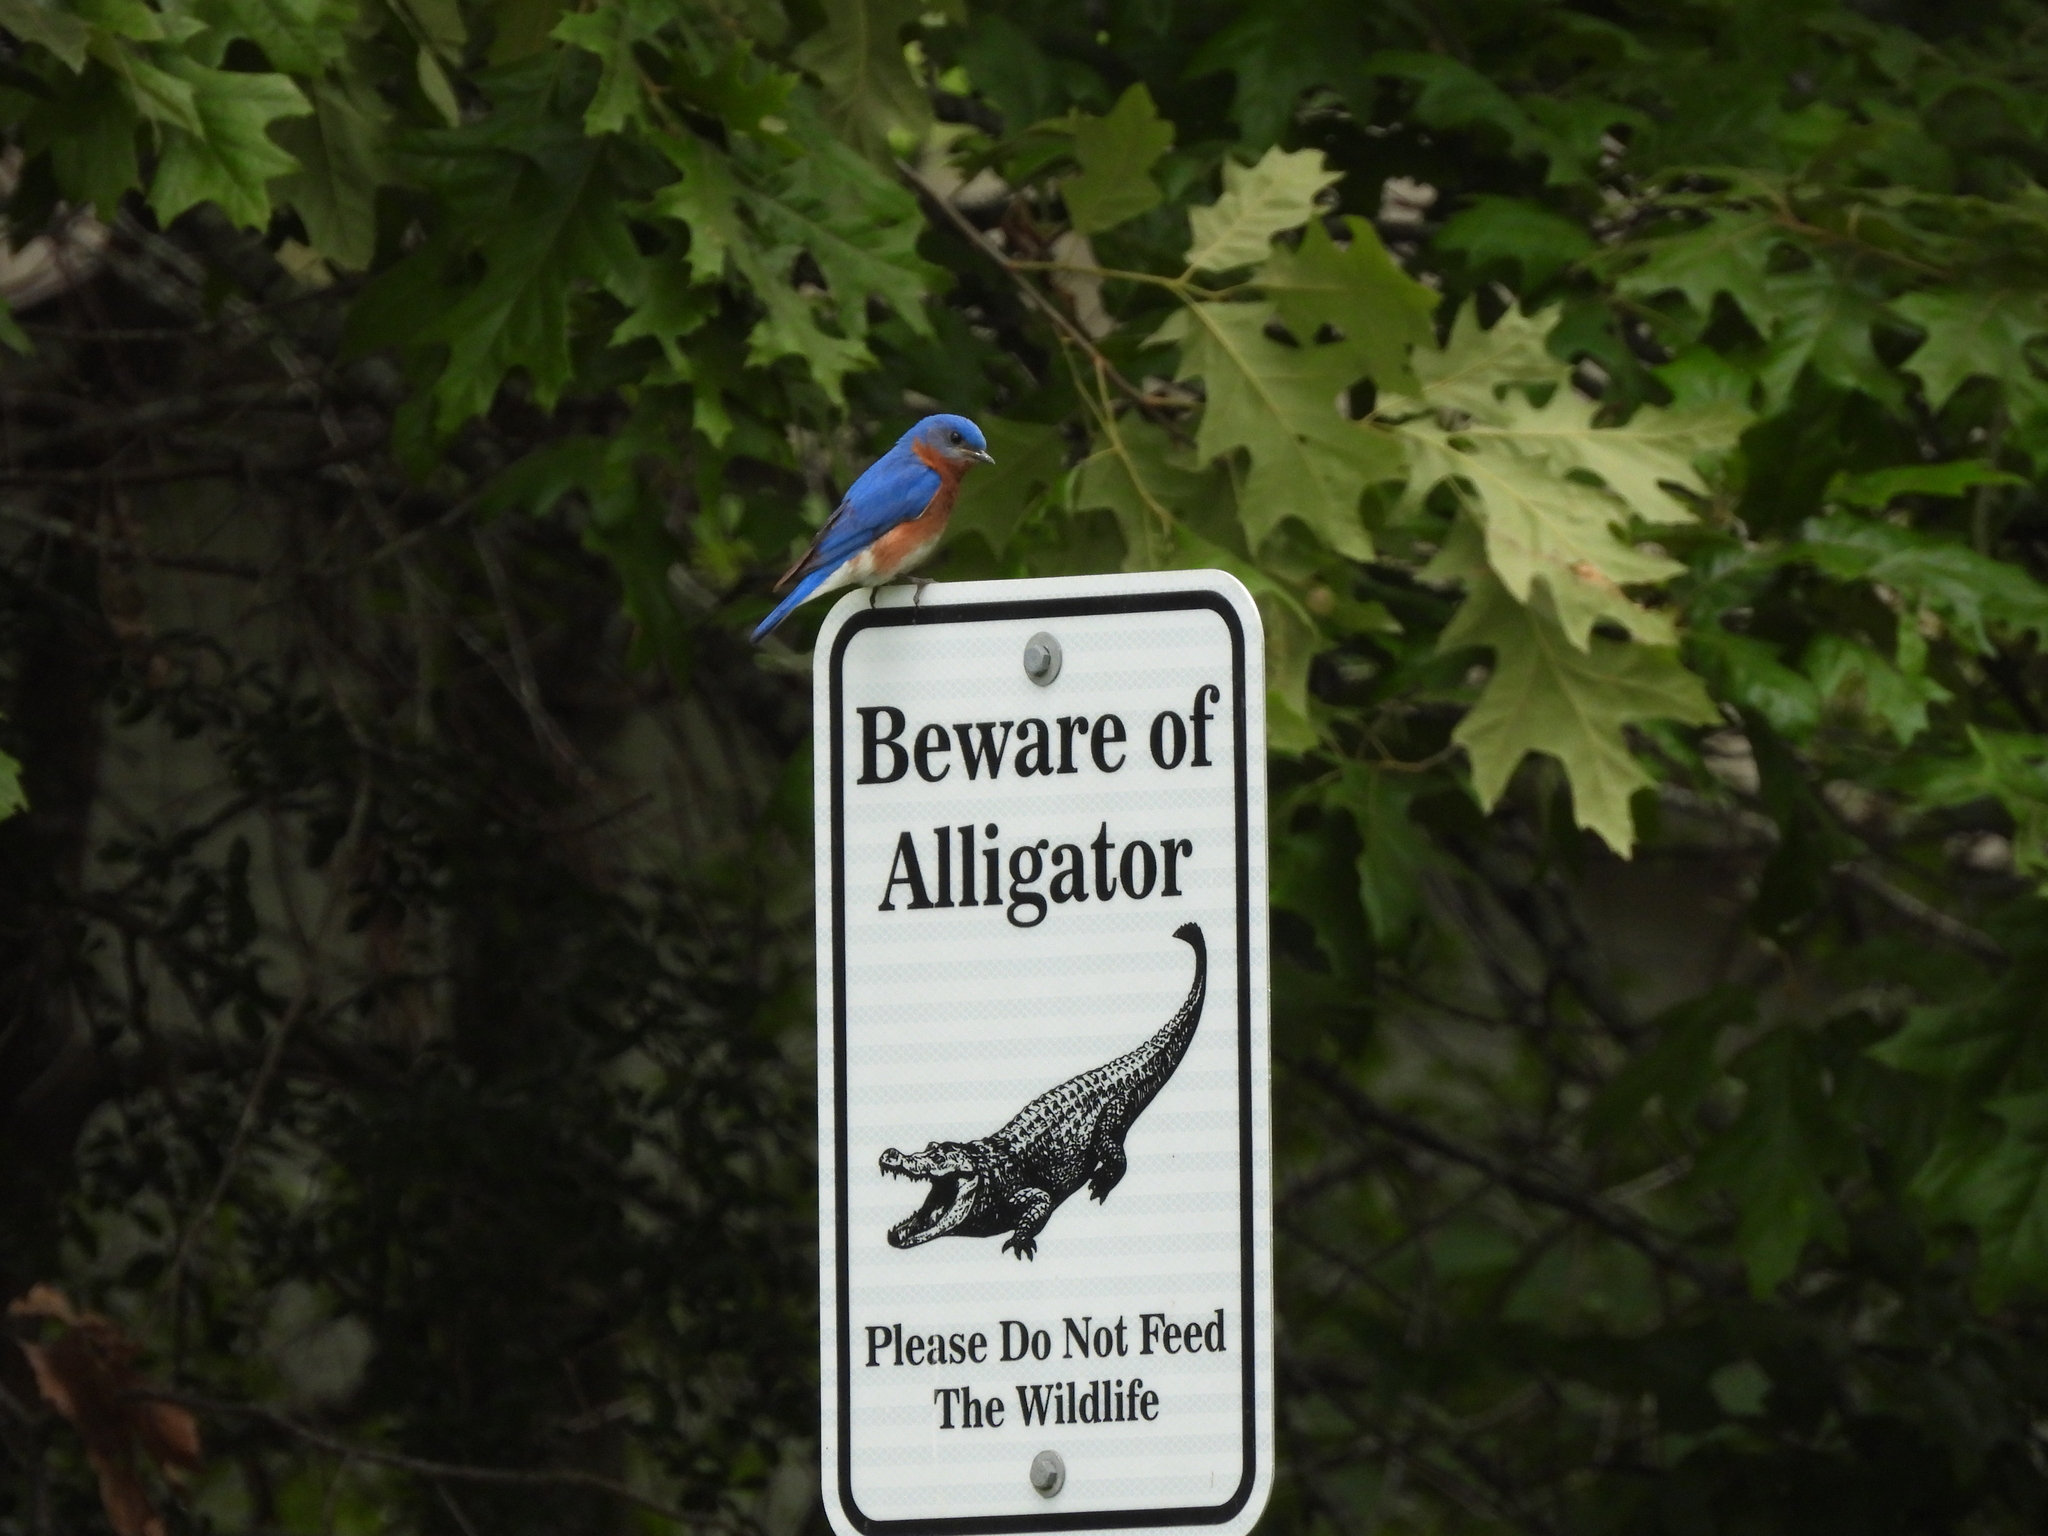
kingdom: Animalia
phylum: Chordata
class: Aves
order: Passeriformes
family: Turdidae
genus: Sialia
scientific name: Sialia sialis
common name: Eastern bluebird
